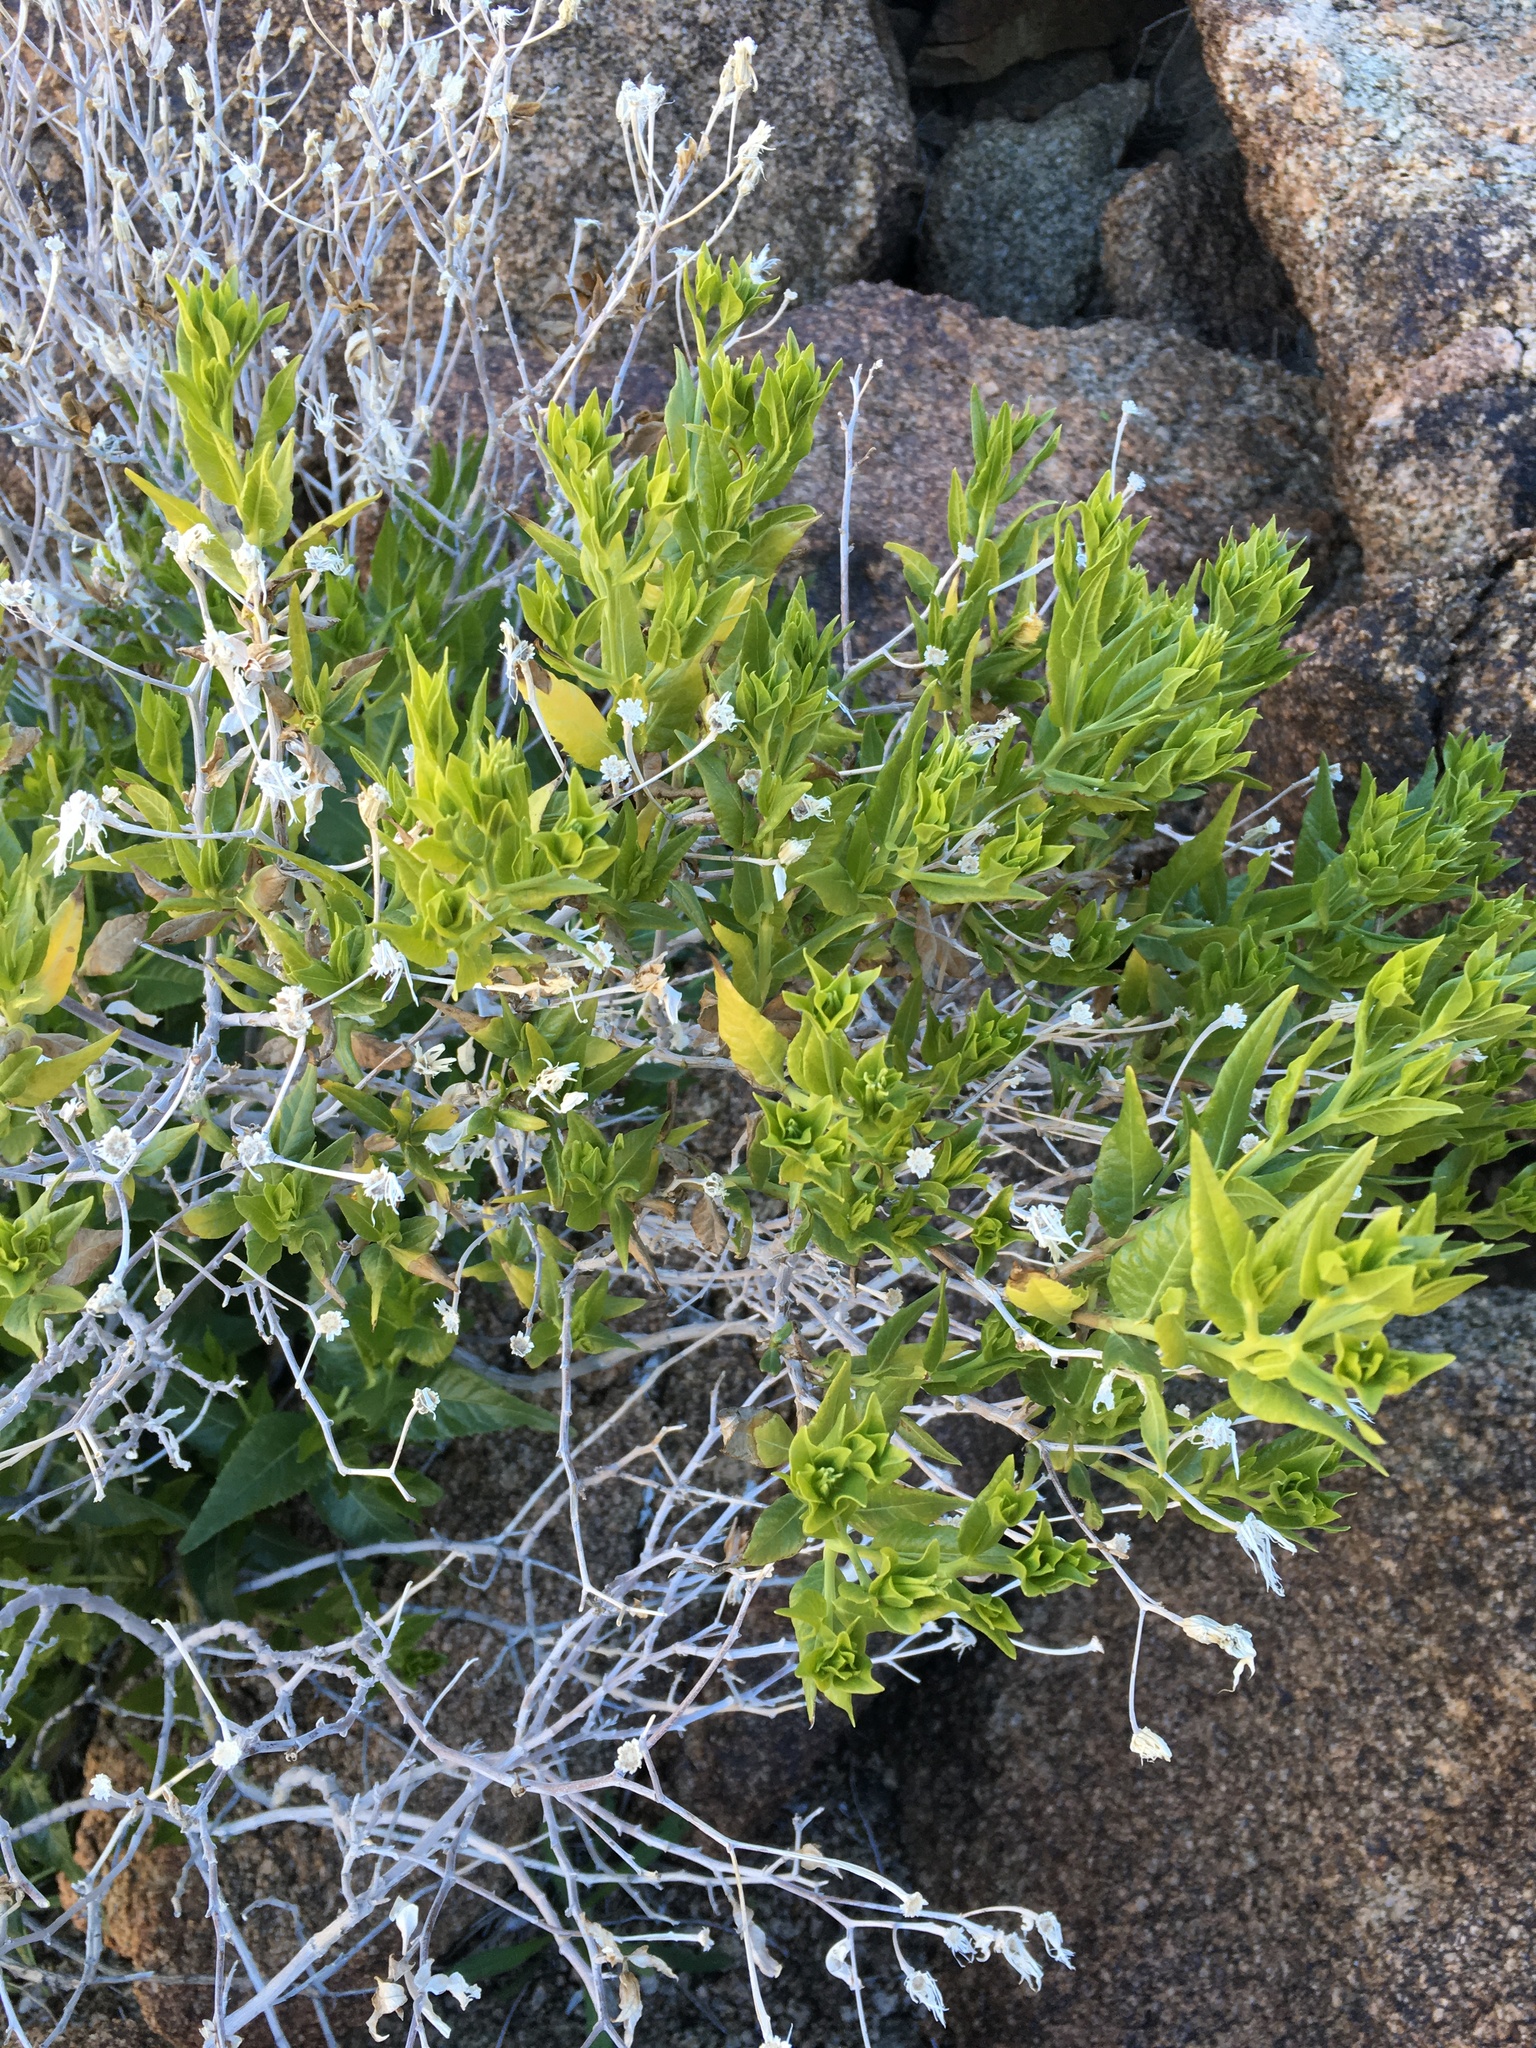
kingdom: Plantae
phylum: Tracheophyta
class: Magnoliopsida
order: Asterales
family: Asteraceae
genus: Trixis
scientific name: Trixis californica
